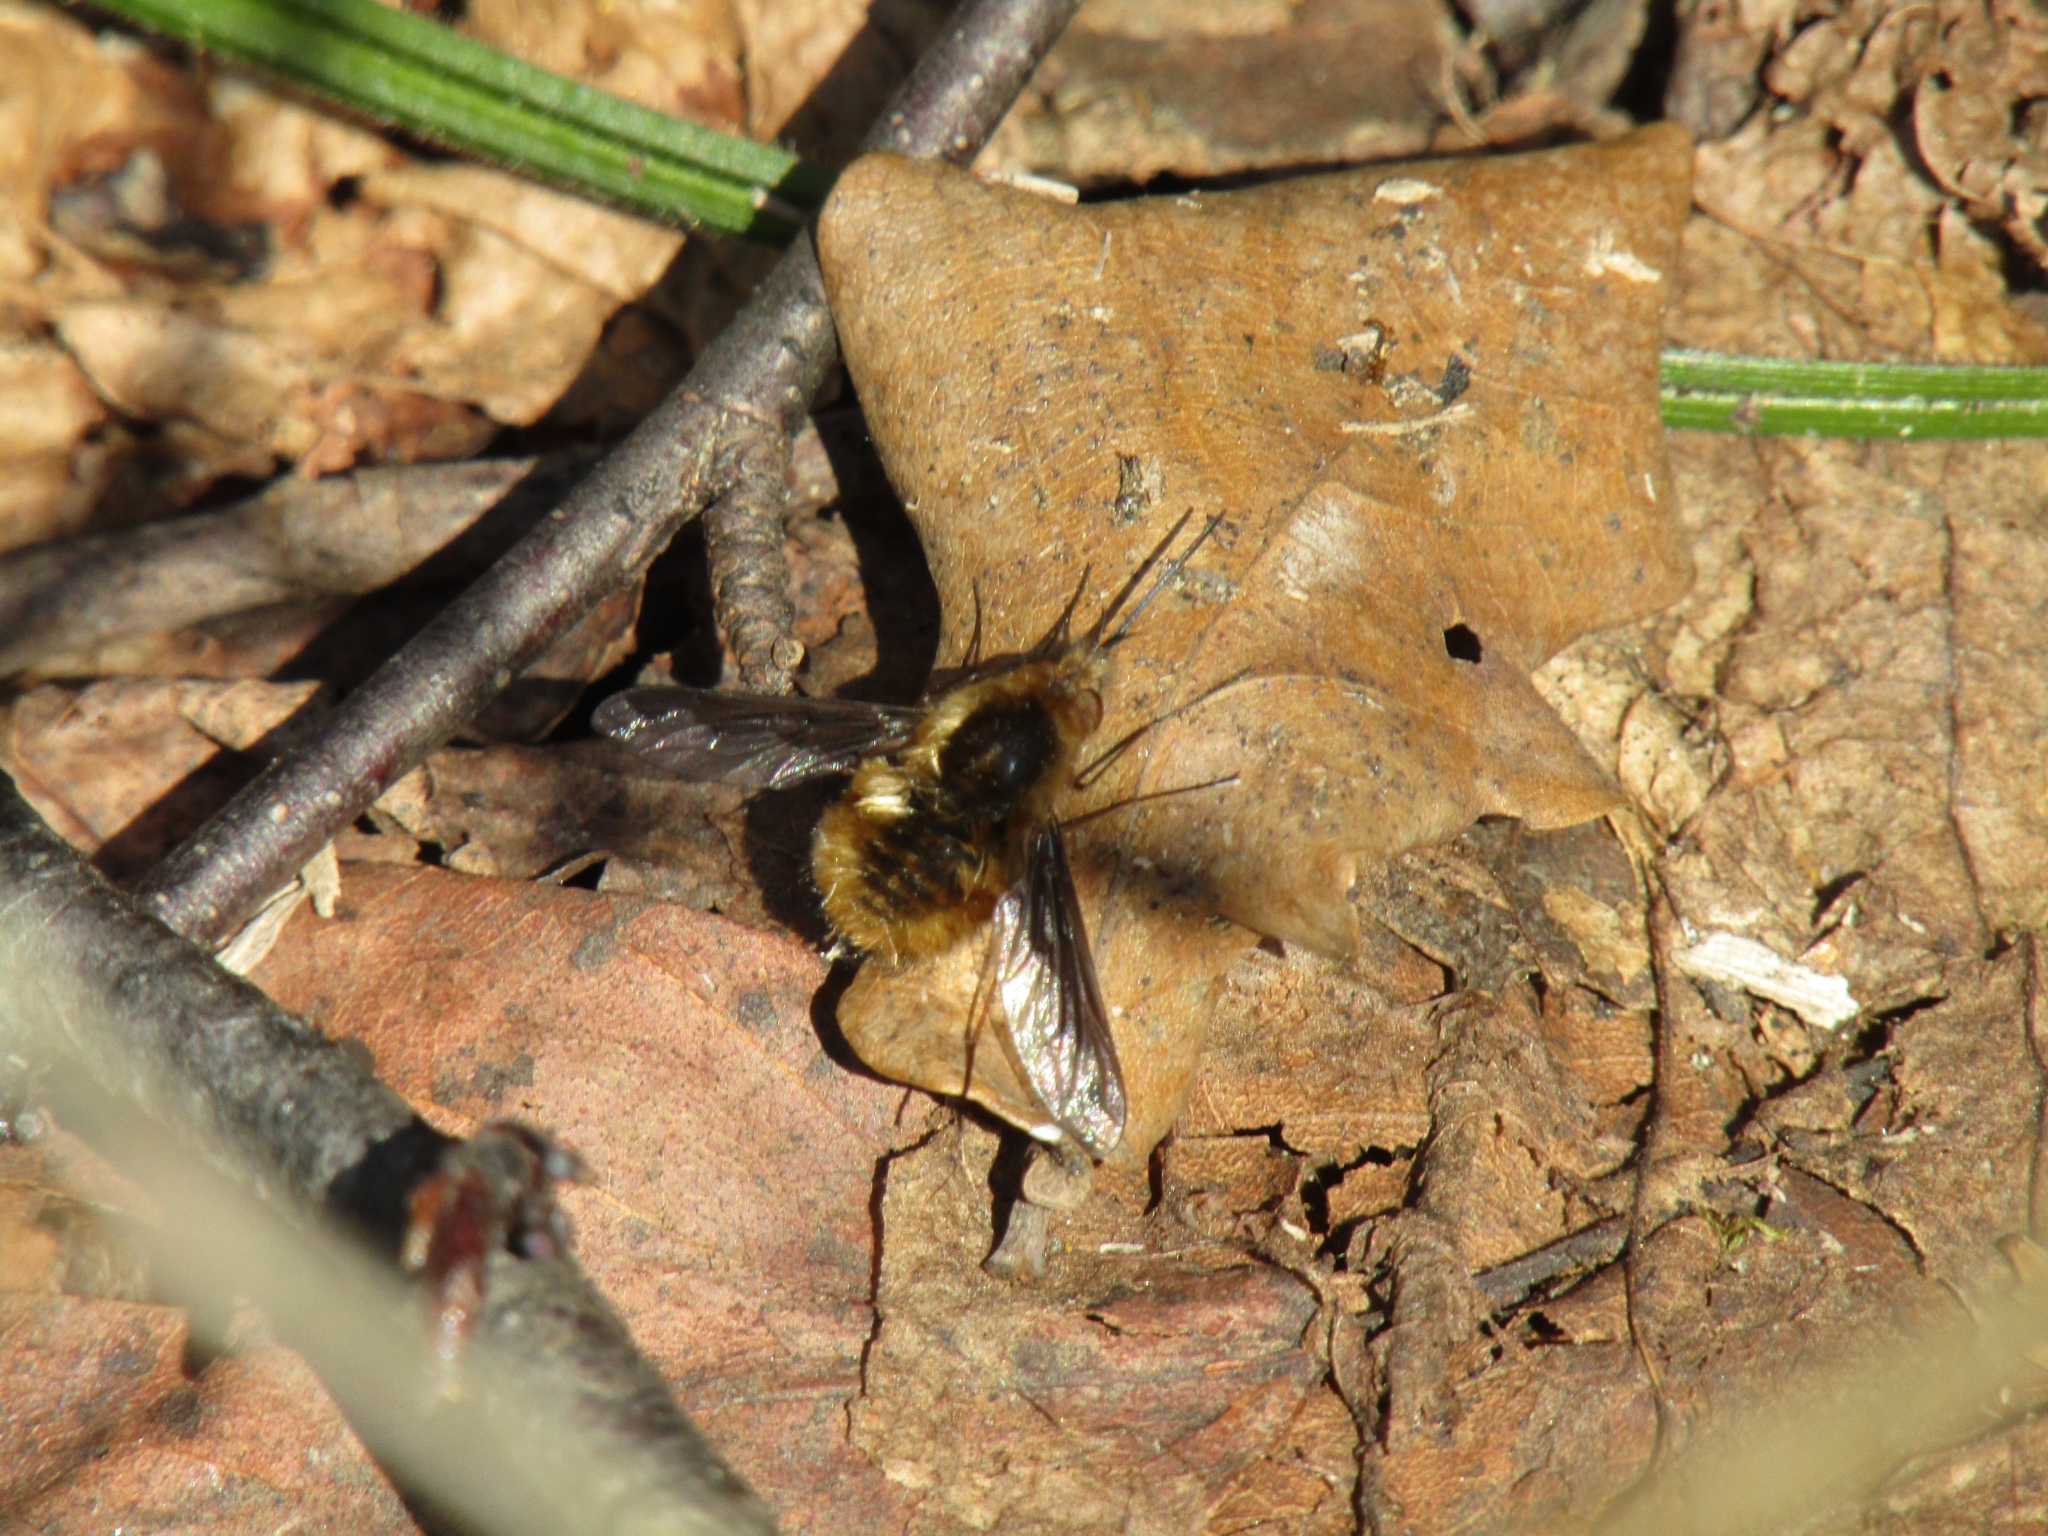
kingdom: Animalia
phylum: Arthropoda
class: Insecta
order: Diptera
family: Bombyliidae
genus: Bombylius
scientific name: Bombylius major
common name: Bee fly
